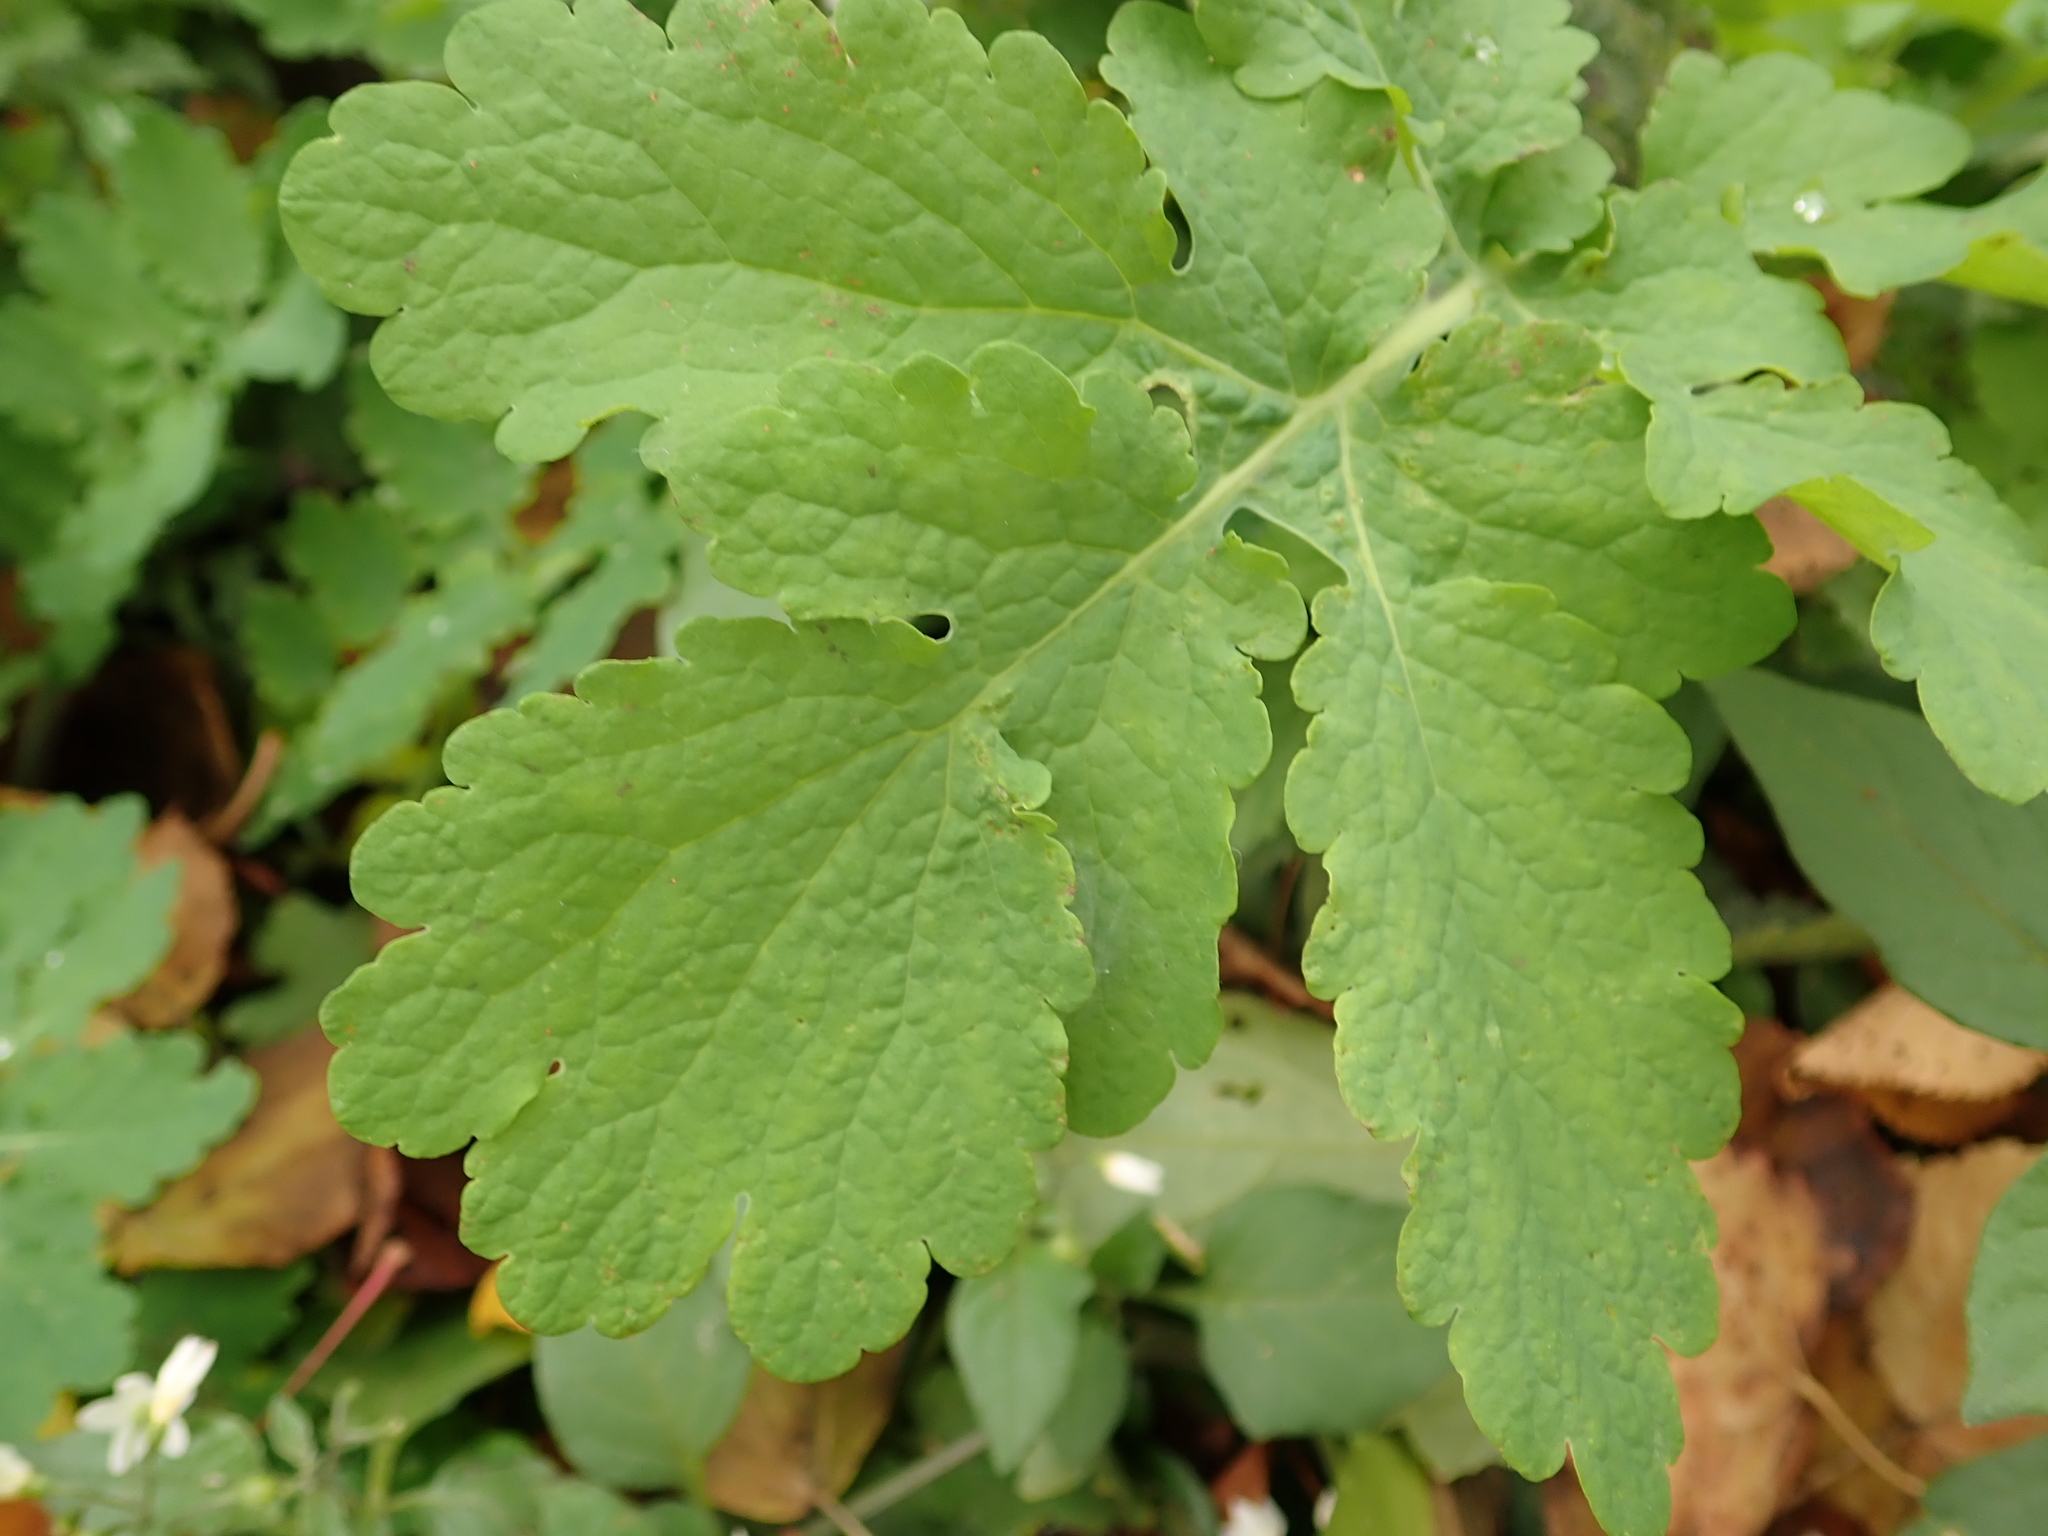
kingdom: Plantae
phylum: Tracheophyta
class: Magnoliopsida
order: Ranunculales
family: Papaveraceae
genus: Chelidonium
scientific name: Chelidonium majus
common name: Greater celandine
